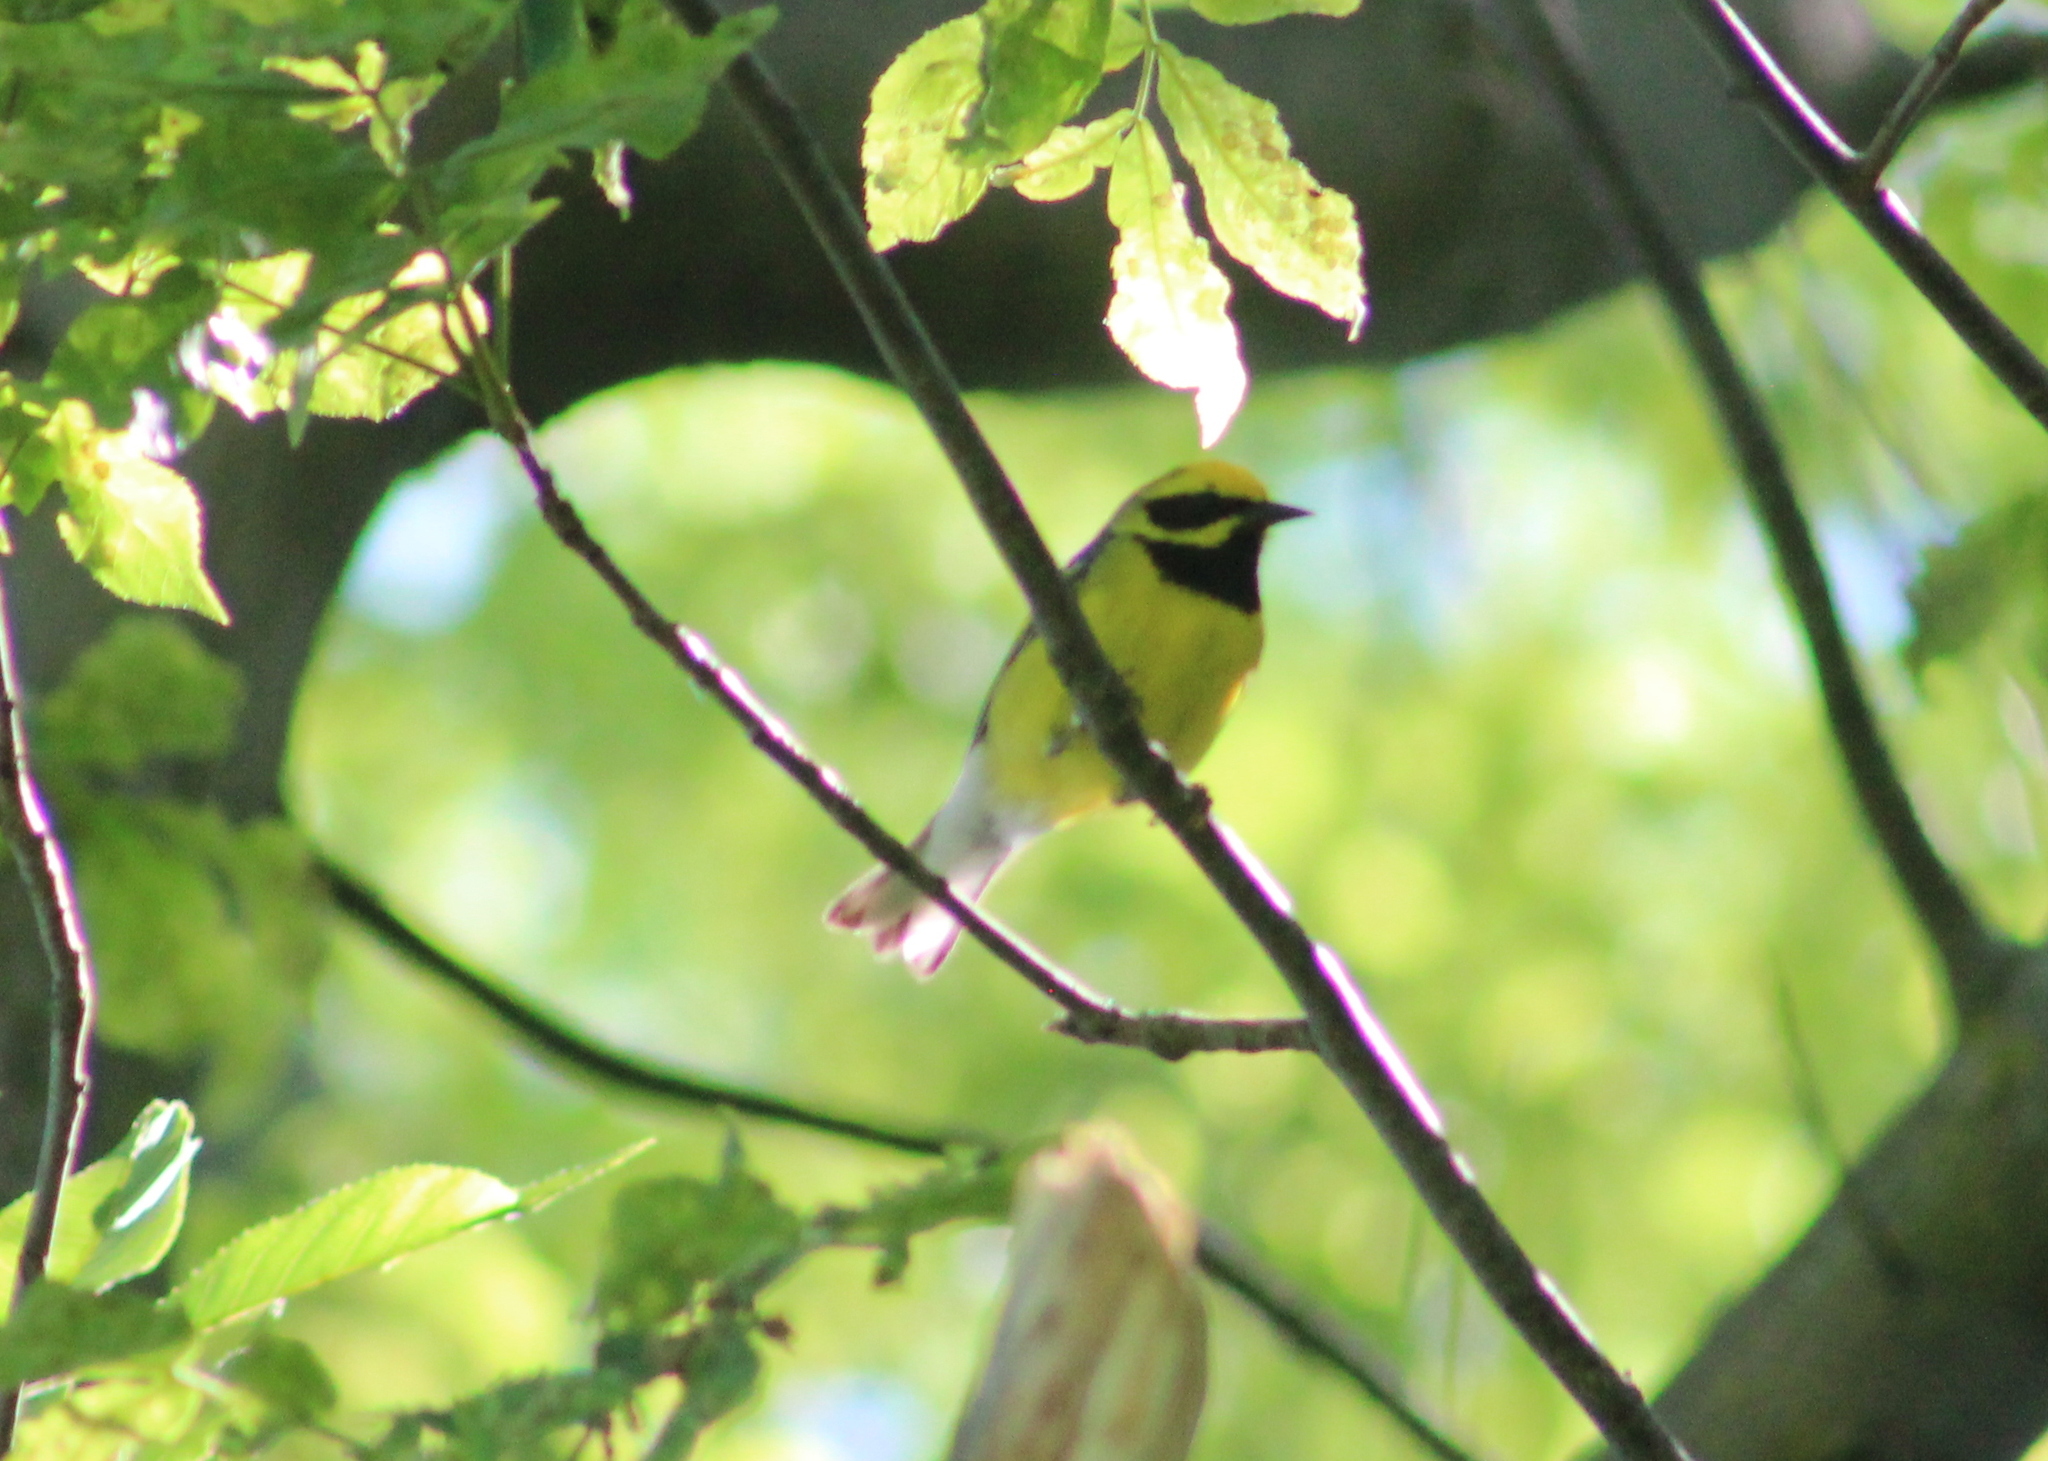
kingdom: Animalia
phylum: Chordata
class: Aves
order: Passeriformes
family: Parulidae
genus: Vermivora
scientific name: Vermivora
